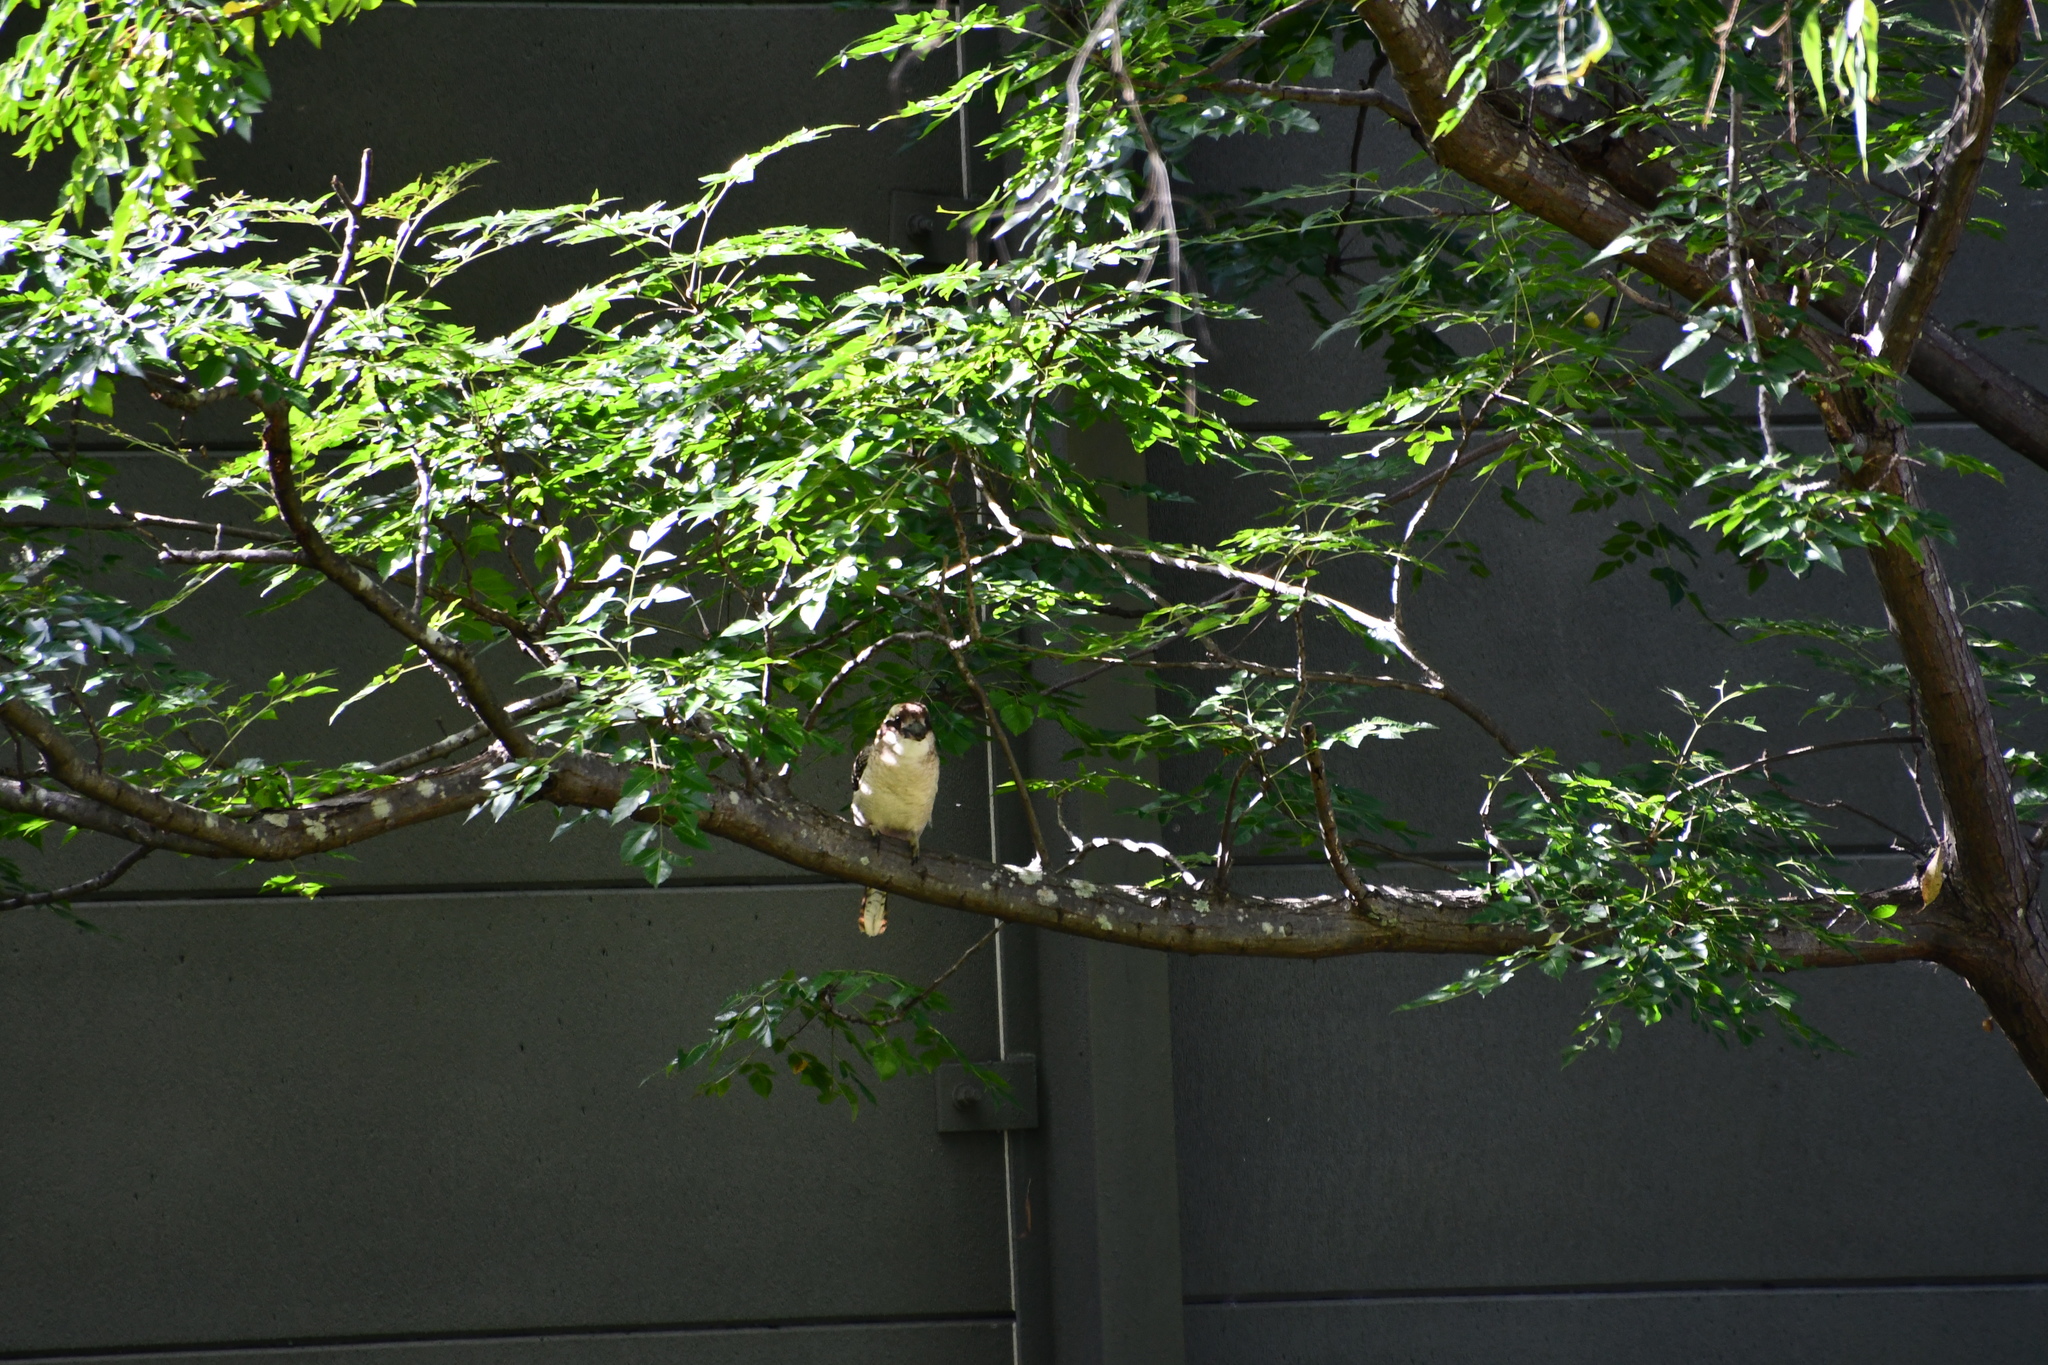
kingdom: Animalia
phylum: Chordata
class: Aves
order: Coraciiformes
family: Alcedinidae
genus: Dacelo
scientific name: Dacelo novaeguineae
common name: Laughing kookaburra
